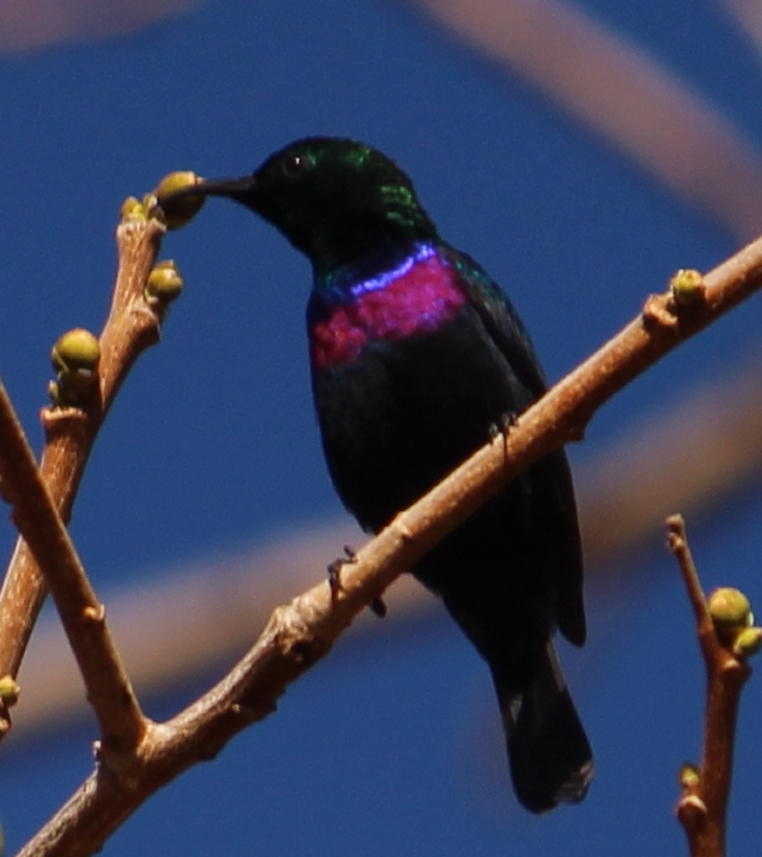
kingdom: Animalia
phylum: Chordata
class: Aves
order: Passeriformes
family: Nectariniidae
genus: Cinnyris
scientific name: Cinnyris bifasciatus
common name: Purple-banded sunbird
